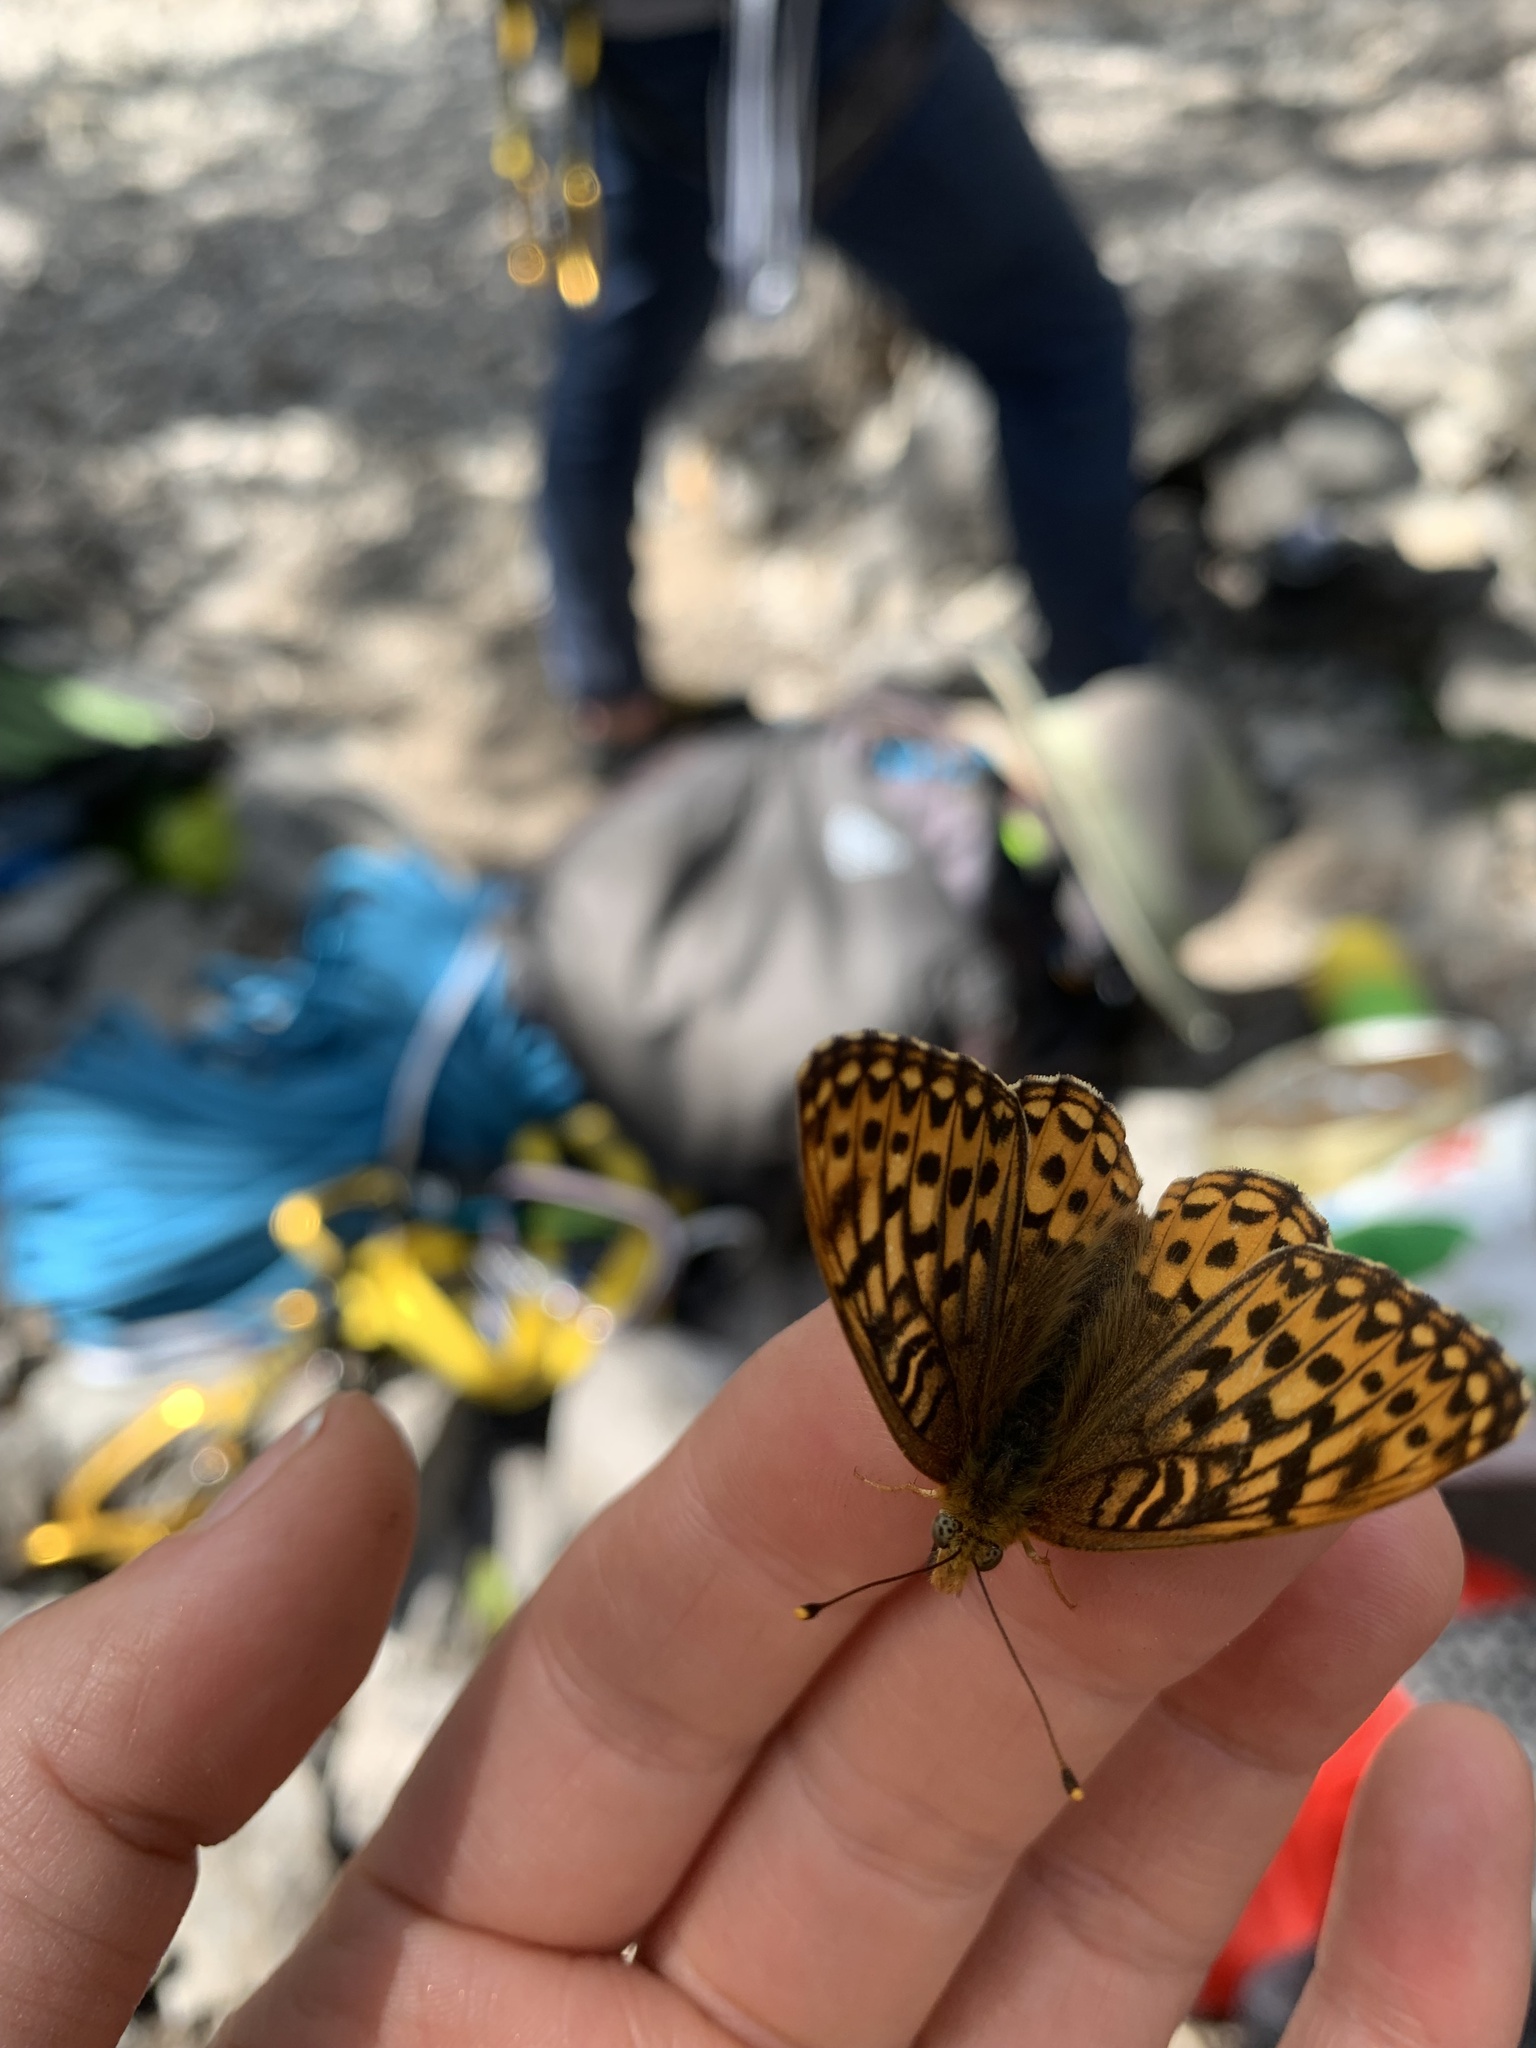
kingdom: Animalia
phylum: Arthropoda
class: Insecta
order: Lepidoptera
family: Nymphalidae
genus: Speyeria
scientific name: Speyeria hydaspe
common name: Hydaspe fritillary
